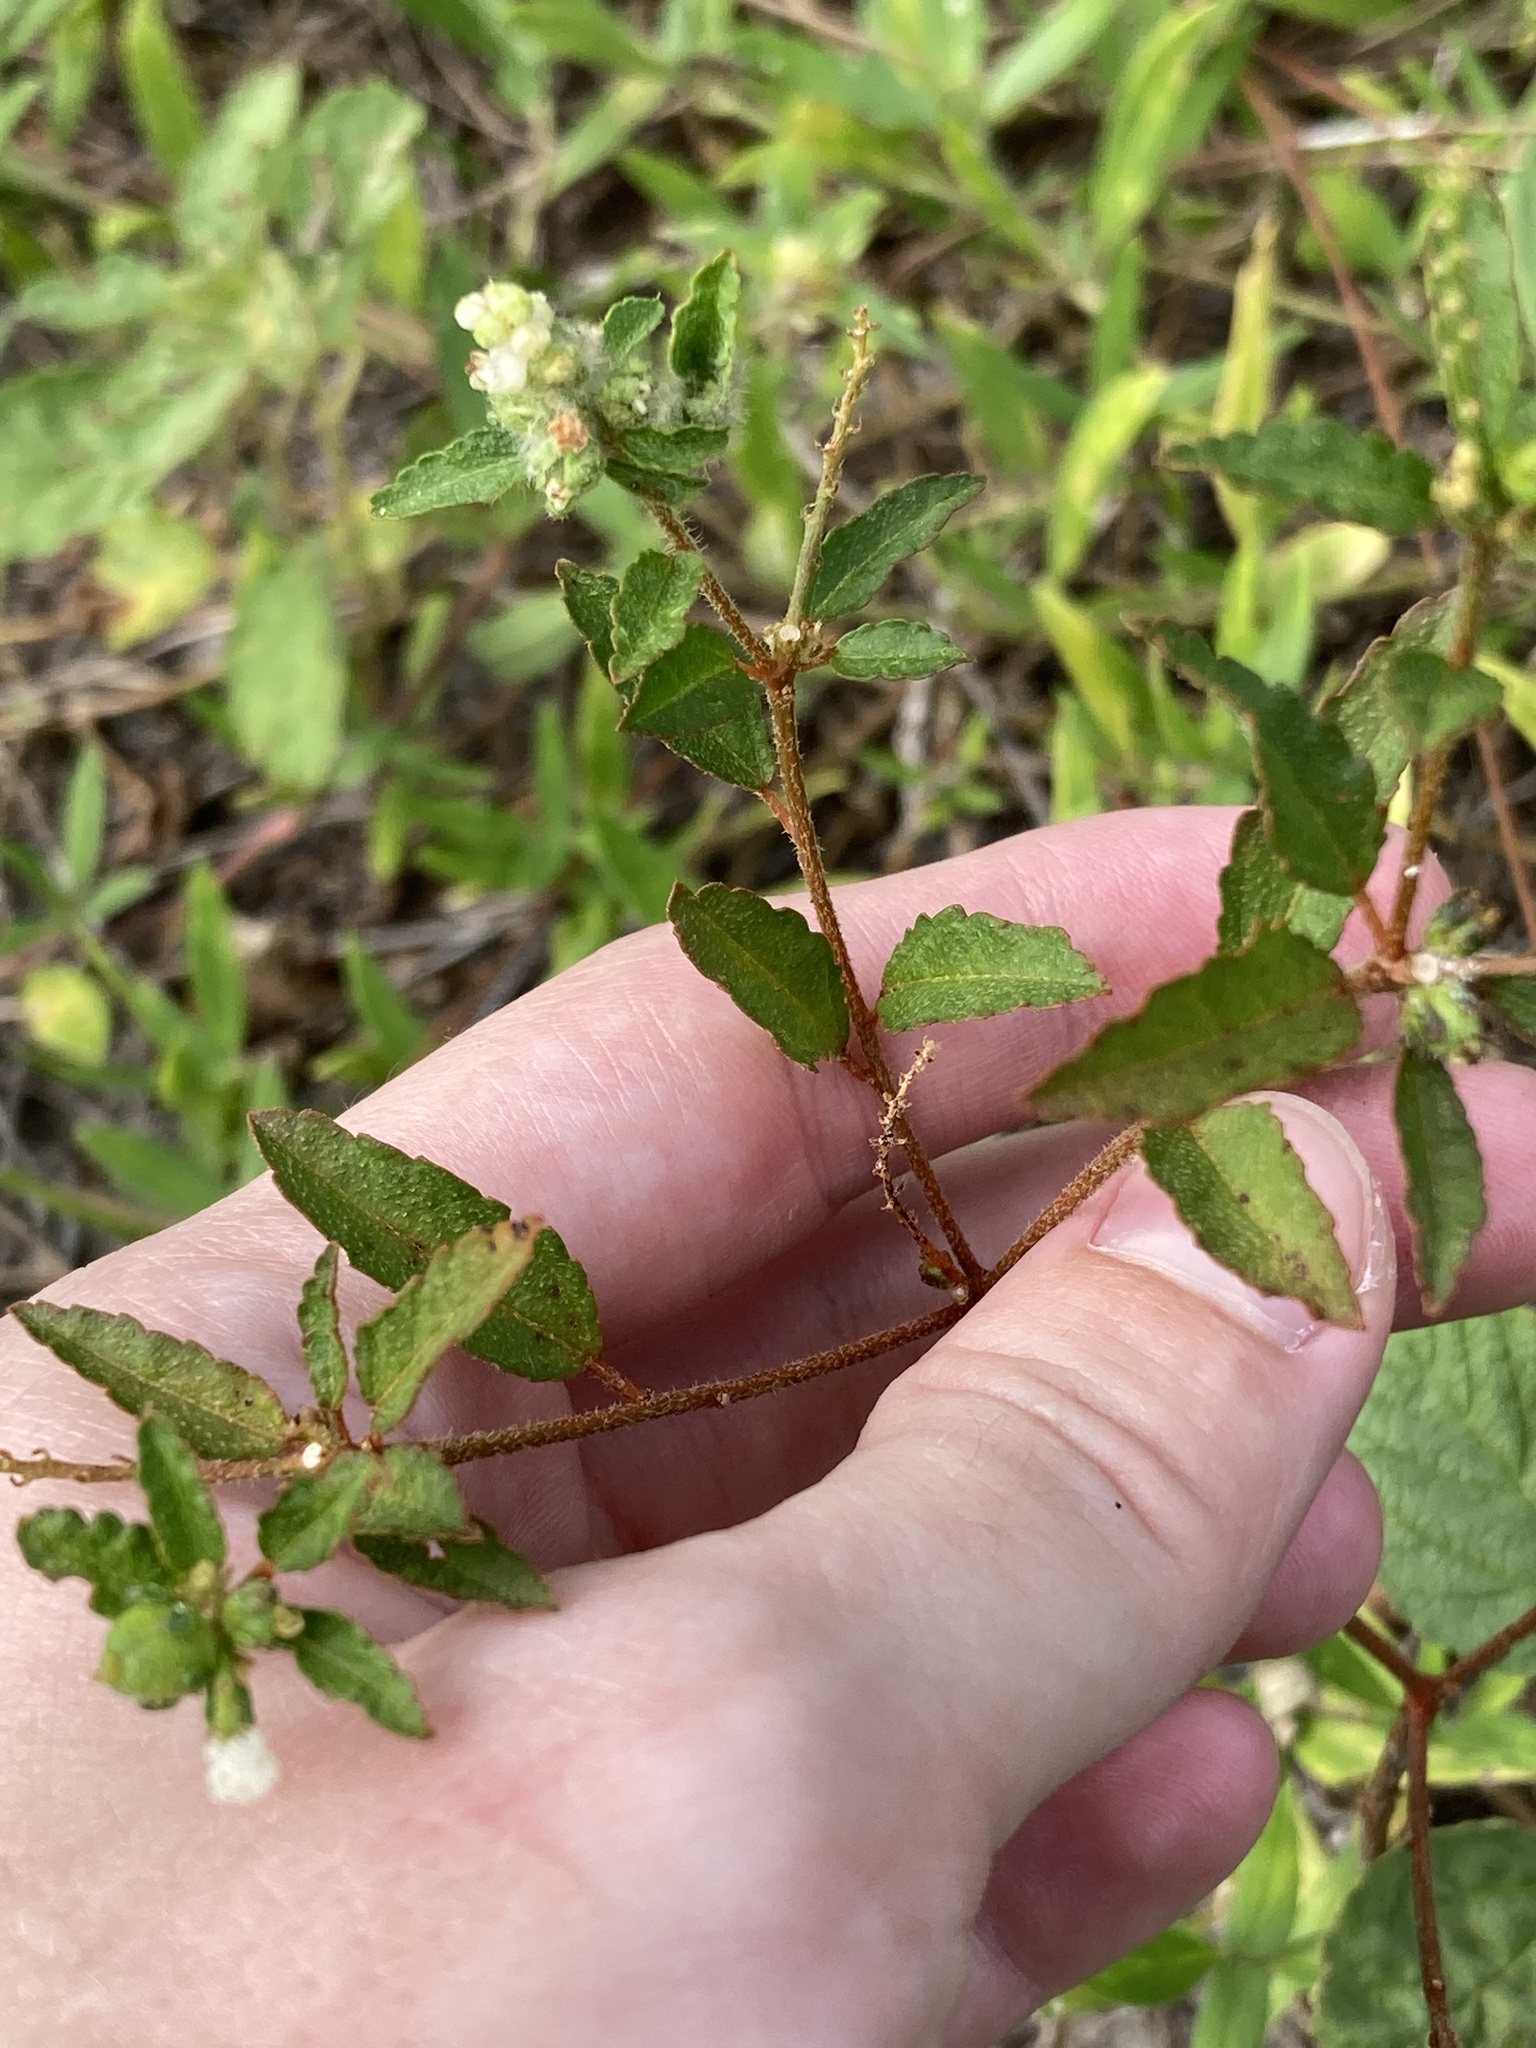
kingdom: Plantae
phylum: Tracheophyta
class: Magnoliopsida
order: Malpighiales
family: Euphorbiaceae
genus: Croton
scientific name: Croton glandulosus
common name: Tropic croton
